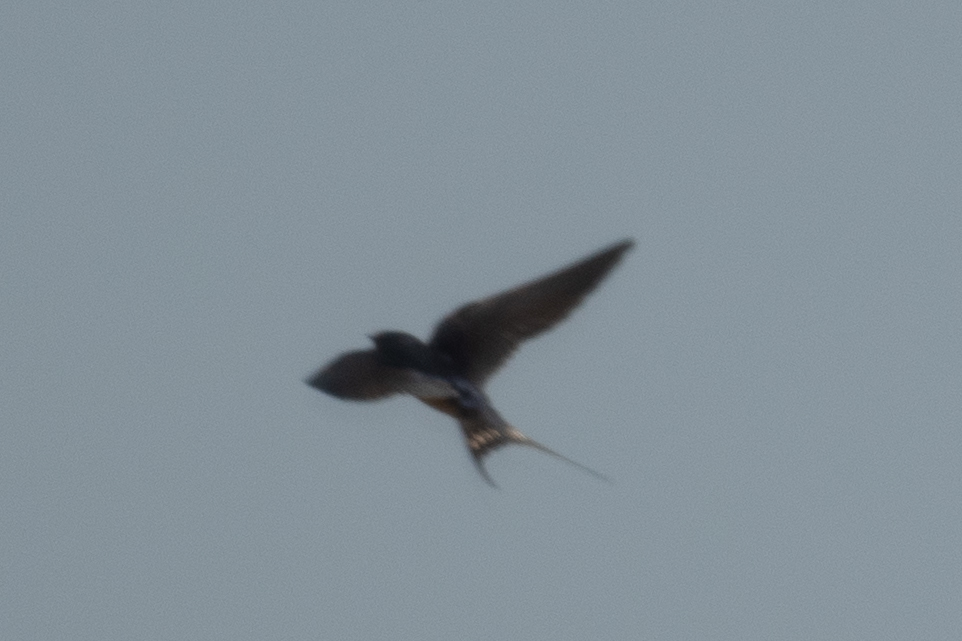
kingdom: Animalia
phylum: Chordata
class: Aves
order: Passeriformes
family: Hirundinidae
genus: Hirundo
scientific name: Hirundo rustica
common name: Barn swallow
